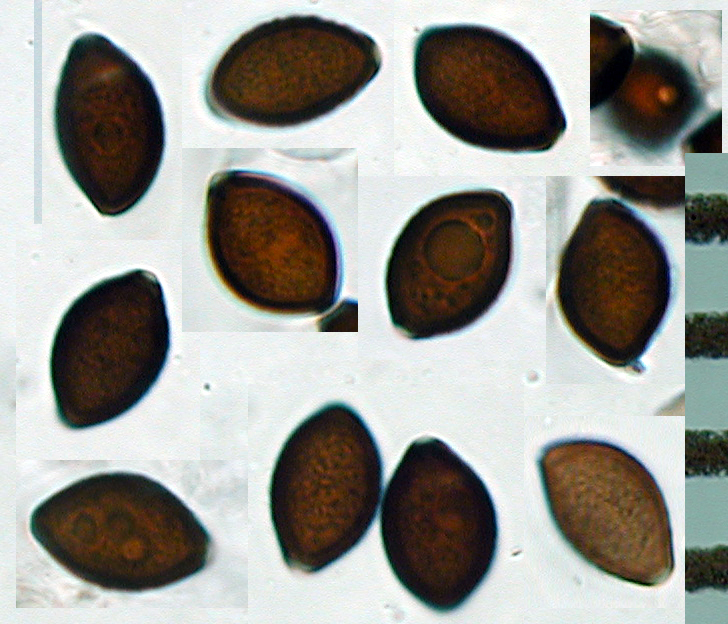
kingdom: Fungi
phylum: Basidiomycota
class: Agaricomycetes
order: Agaricales
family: Bolbitiaceae
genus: Panaeolus
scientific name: Panaeolus olivaceus
